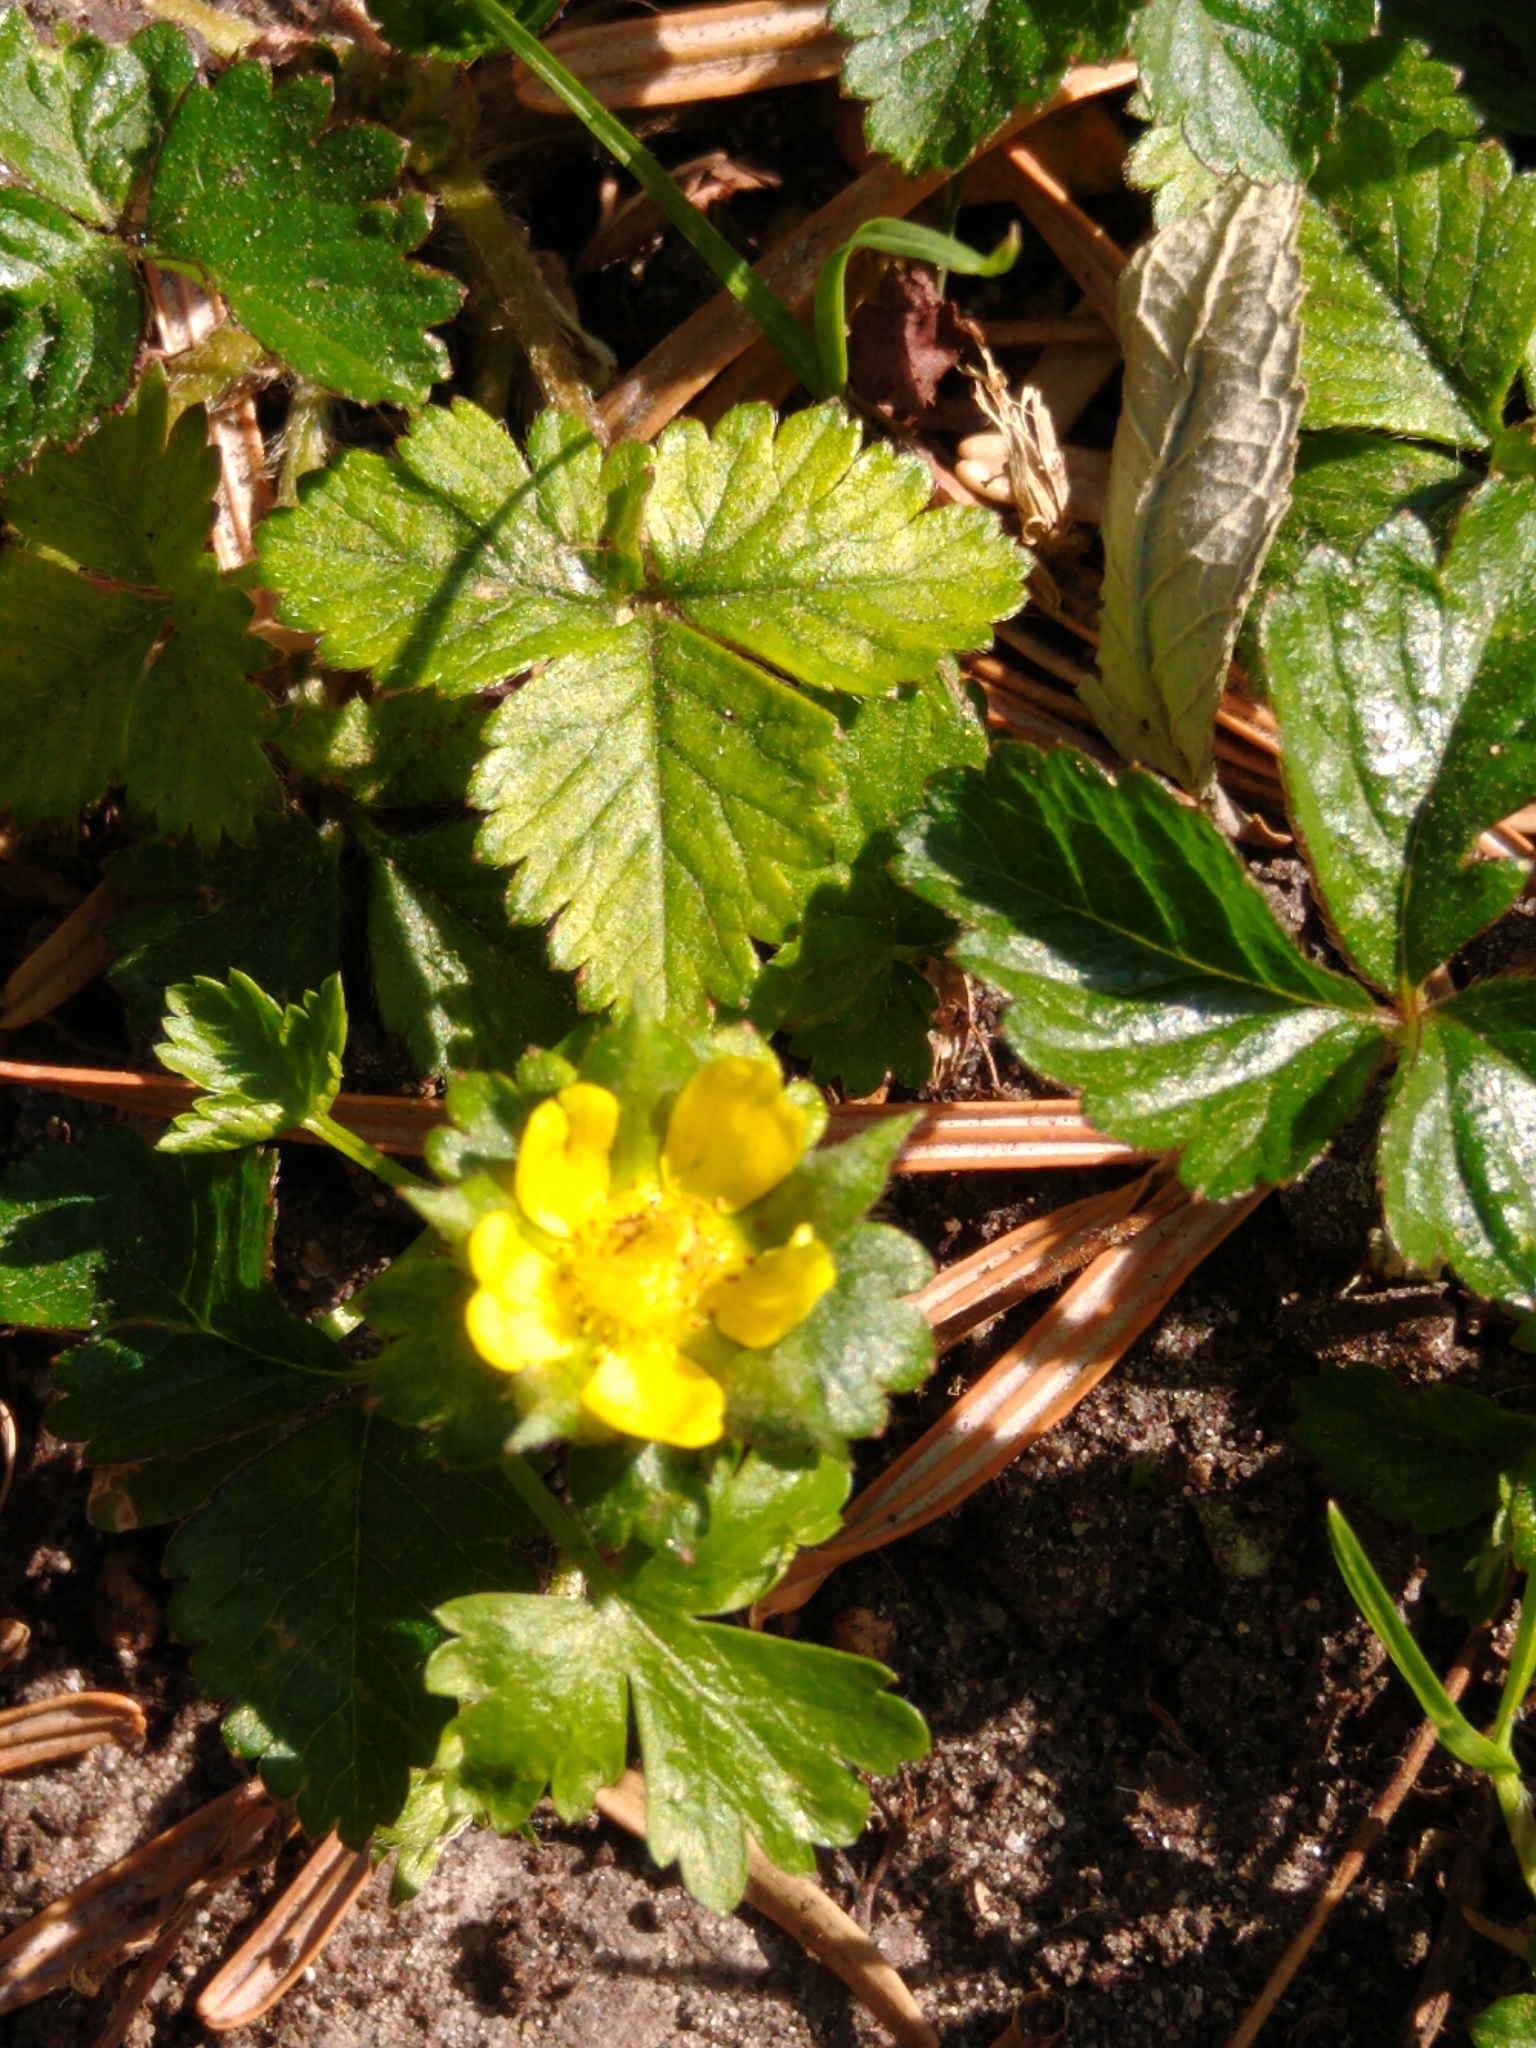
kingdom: Plantae
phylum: Tracheophyta
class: Magnoliopsida
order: Rosales
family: Rosaceae
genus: Potentilla
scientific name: Potentilla indica
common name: Yellow-flowered strawberry
